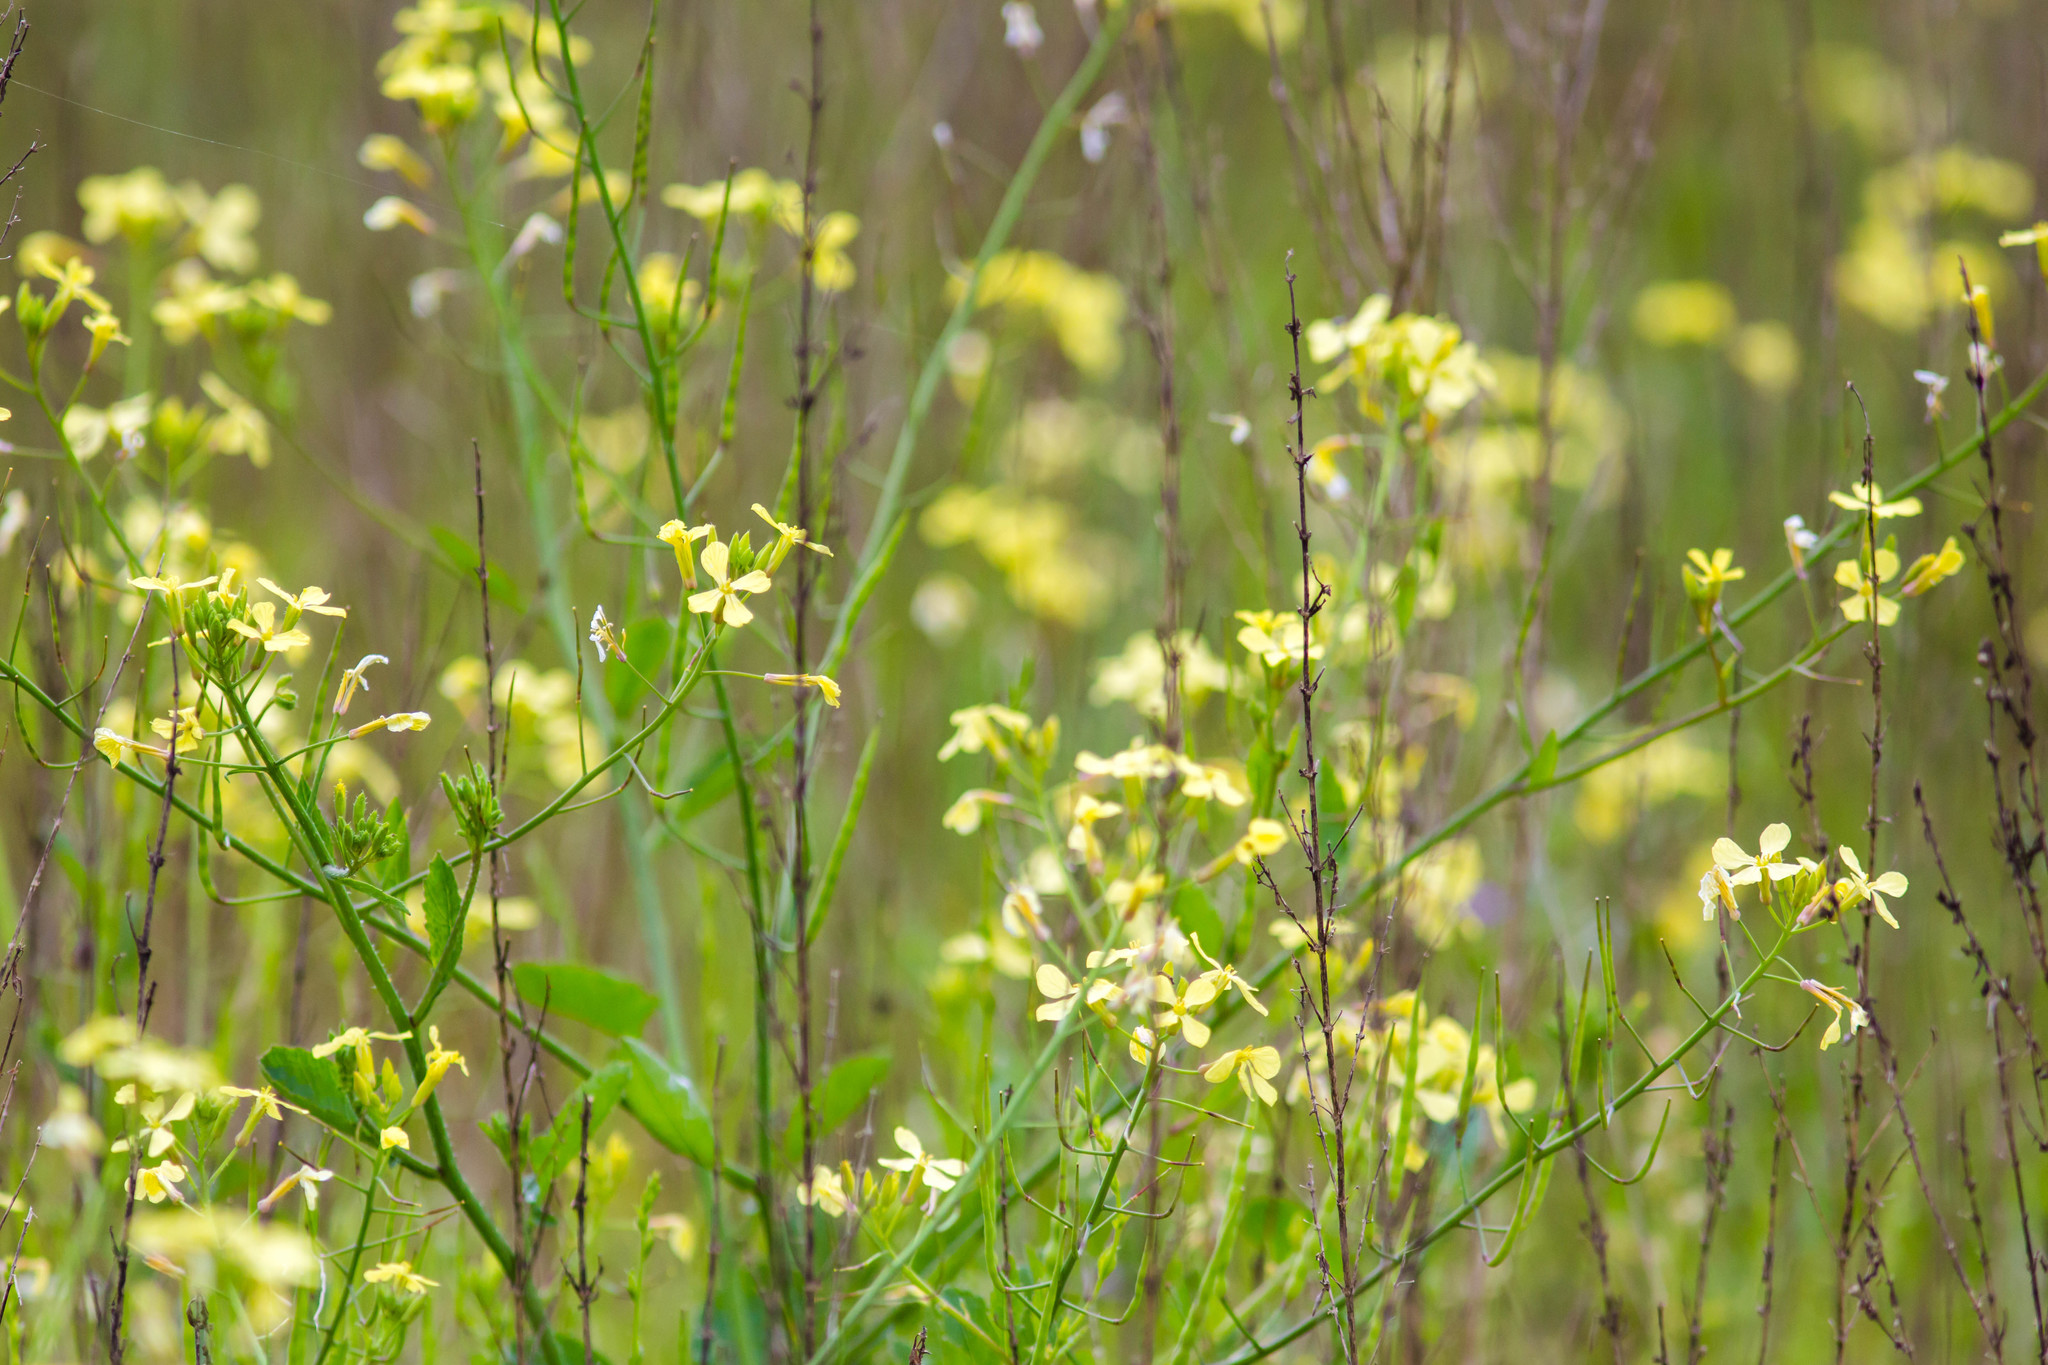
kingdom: Plantae
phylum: Tracheophyta
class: Magnoliopsida
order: Brassicales
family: Brassicaceae
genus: Raphanus
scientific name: Raphanus raphanistrum
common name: Wild radish
